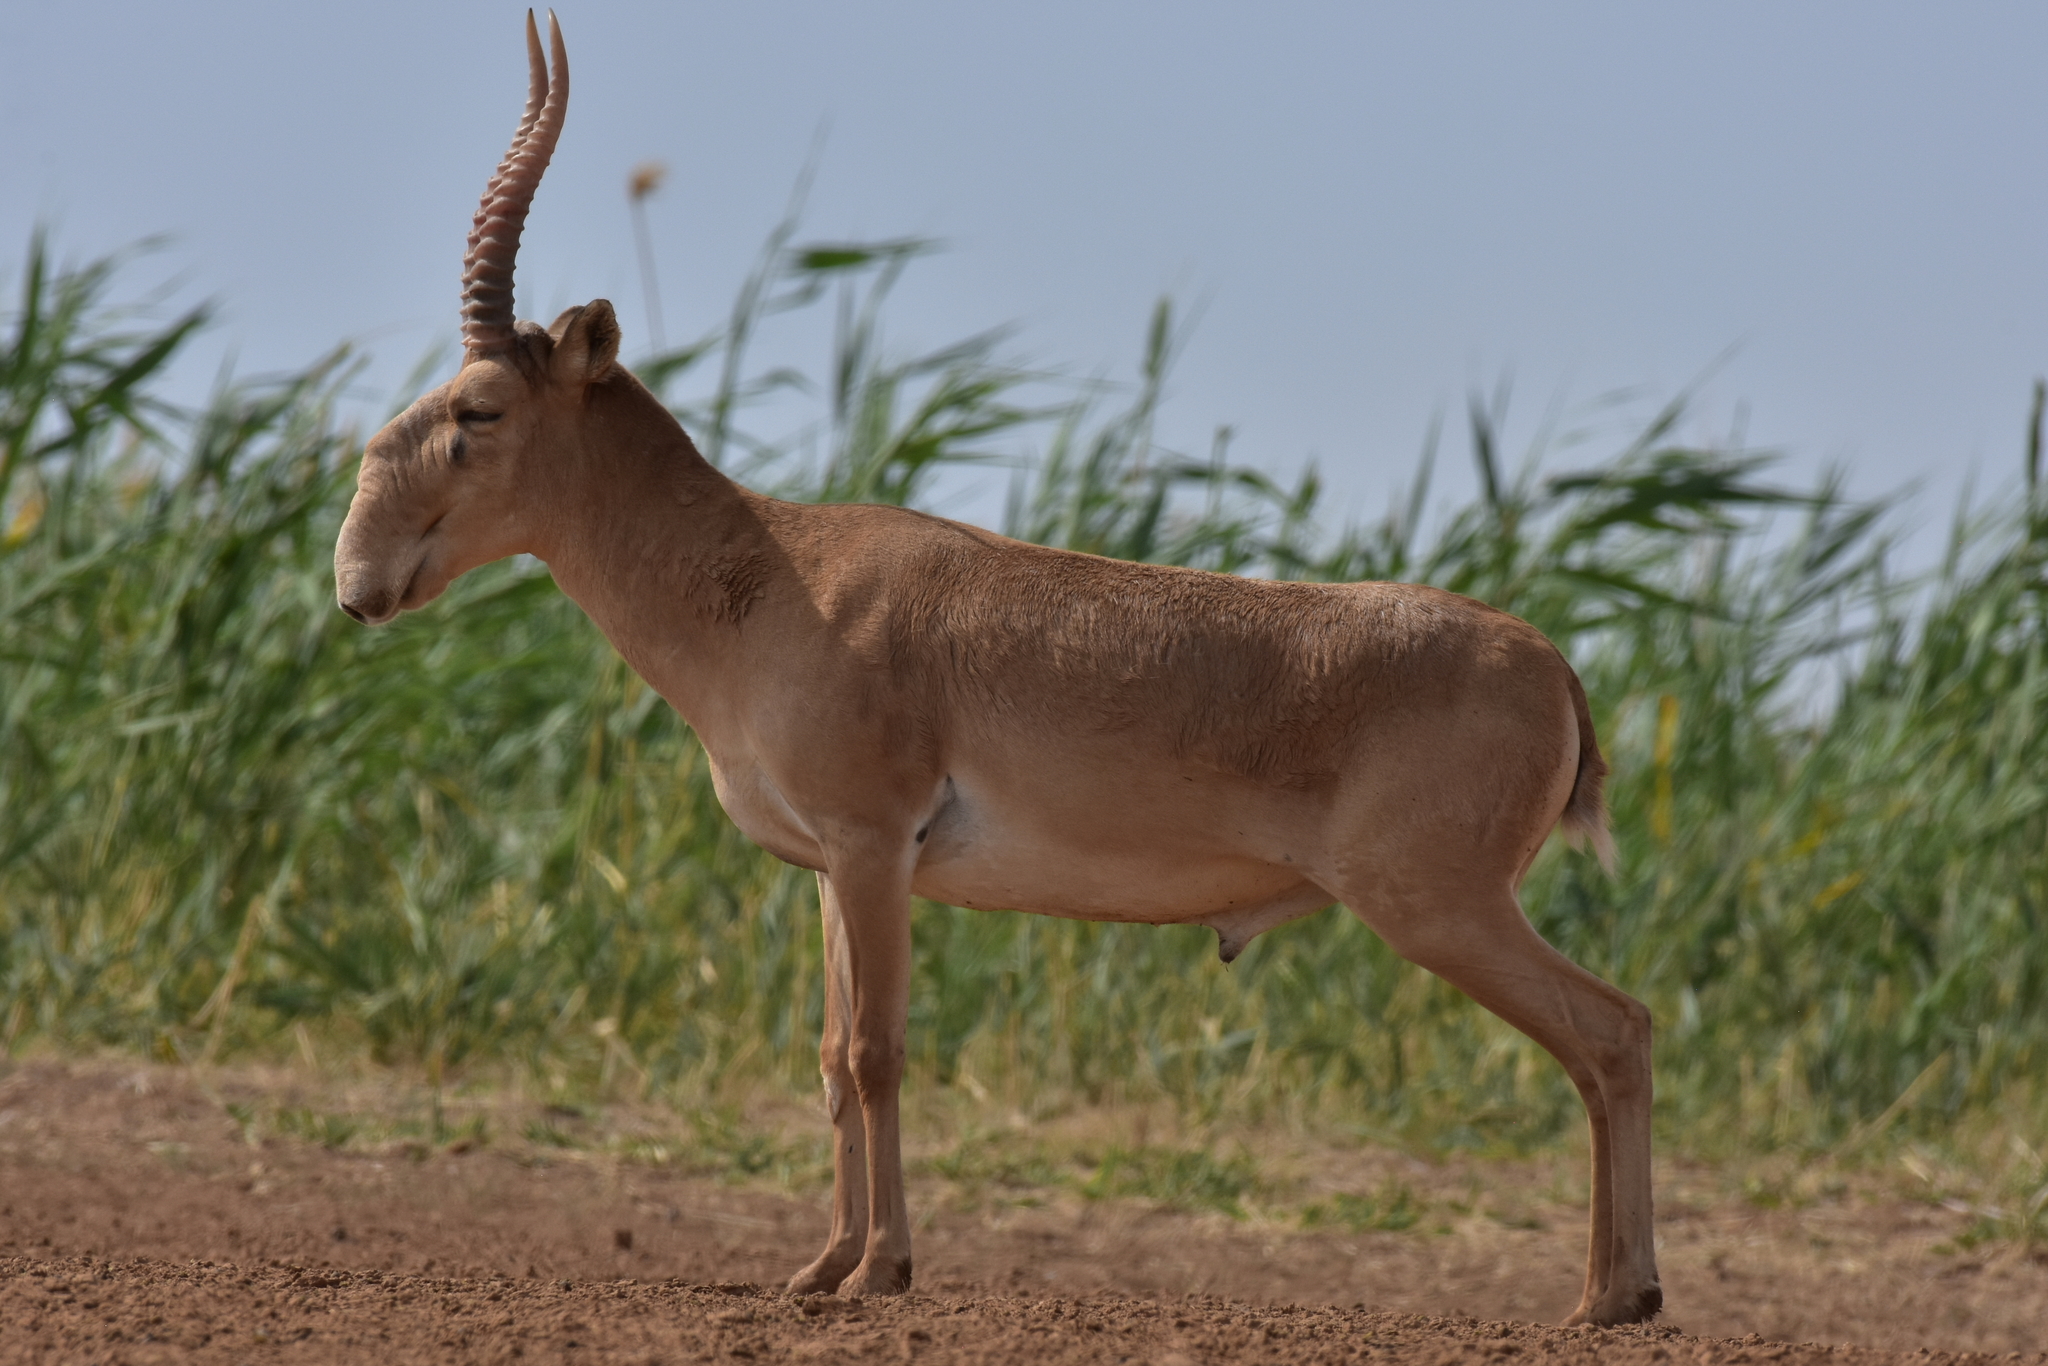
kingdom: Animalia
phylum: Chordata
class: Mammalia
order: Artiodactyla
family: Bovidae
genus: Saiga
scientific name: Saiga tatarica
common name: Saiga
